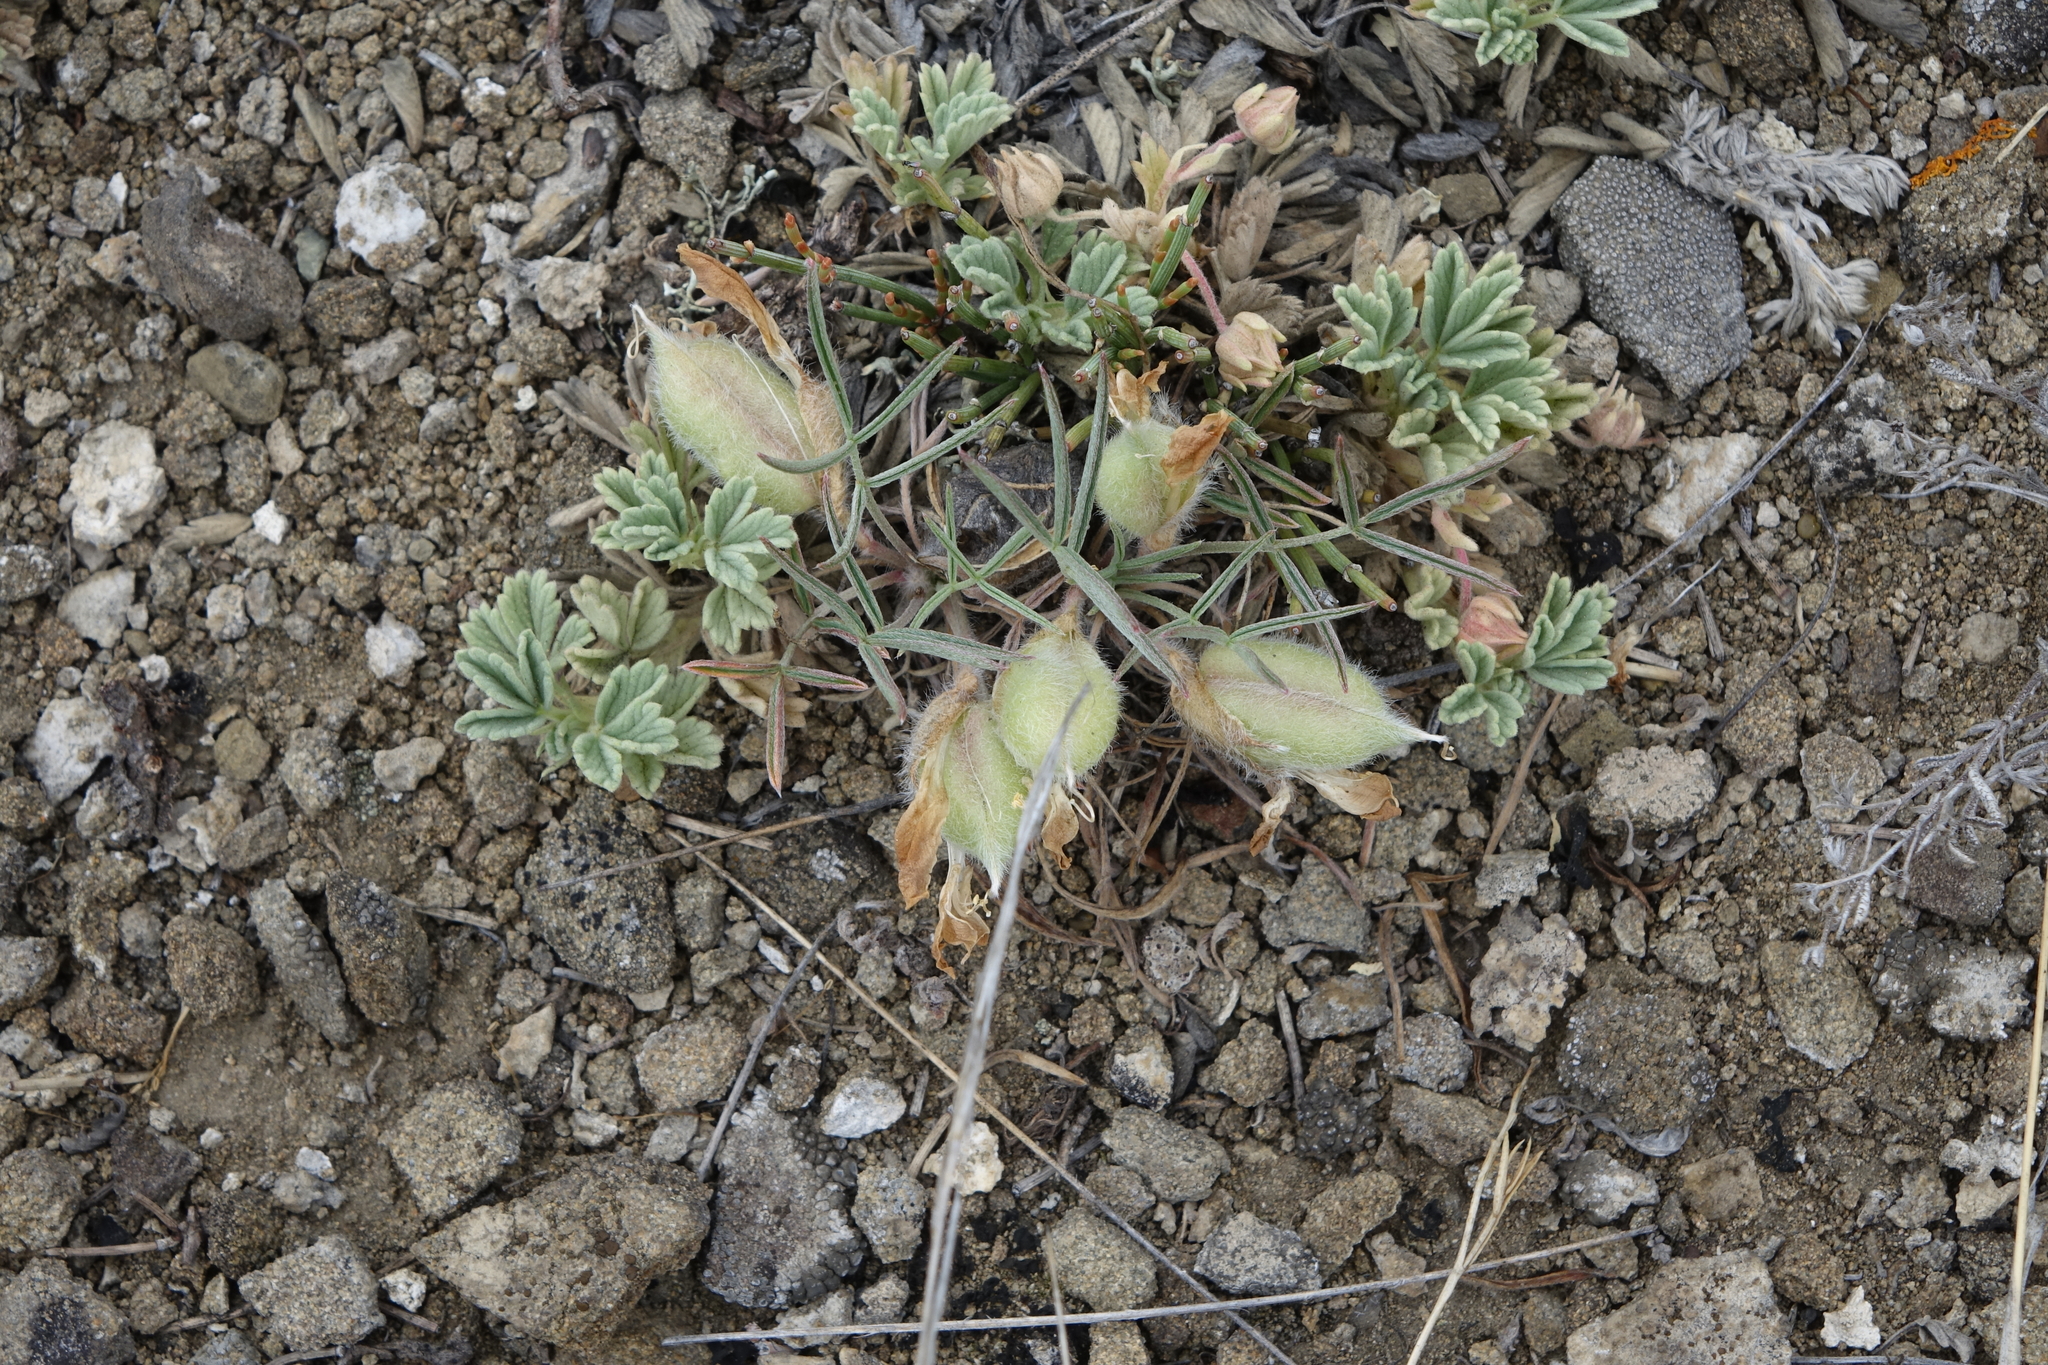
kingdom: Plantae
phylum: Tracheophyta
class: Magnoliopsida
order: Fabales
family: Fabaceae
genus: Oxytropis
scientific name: Oxytropis sobolevskajae
